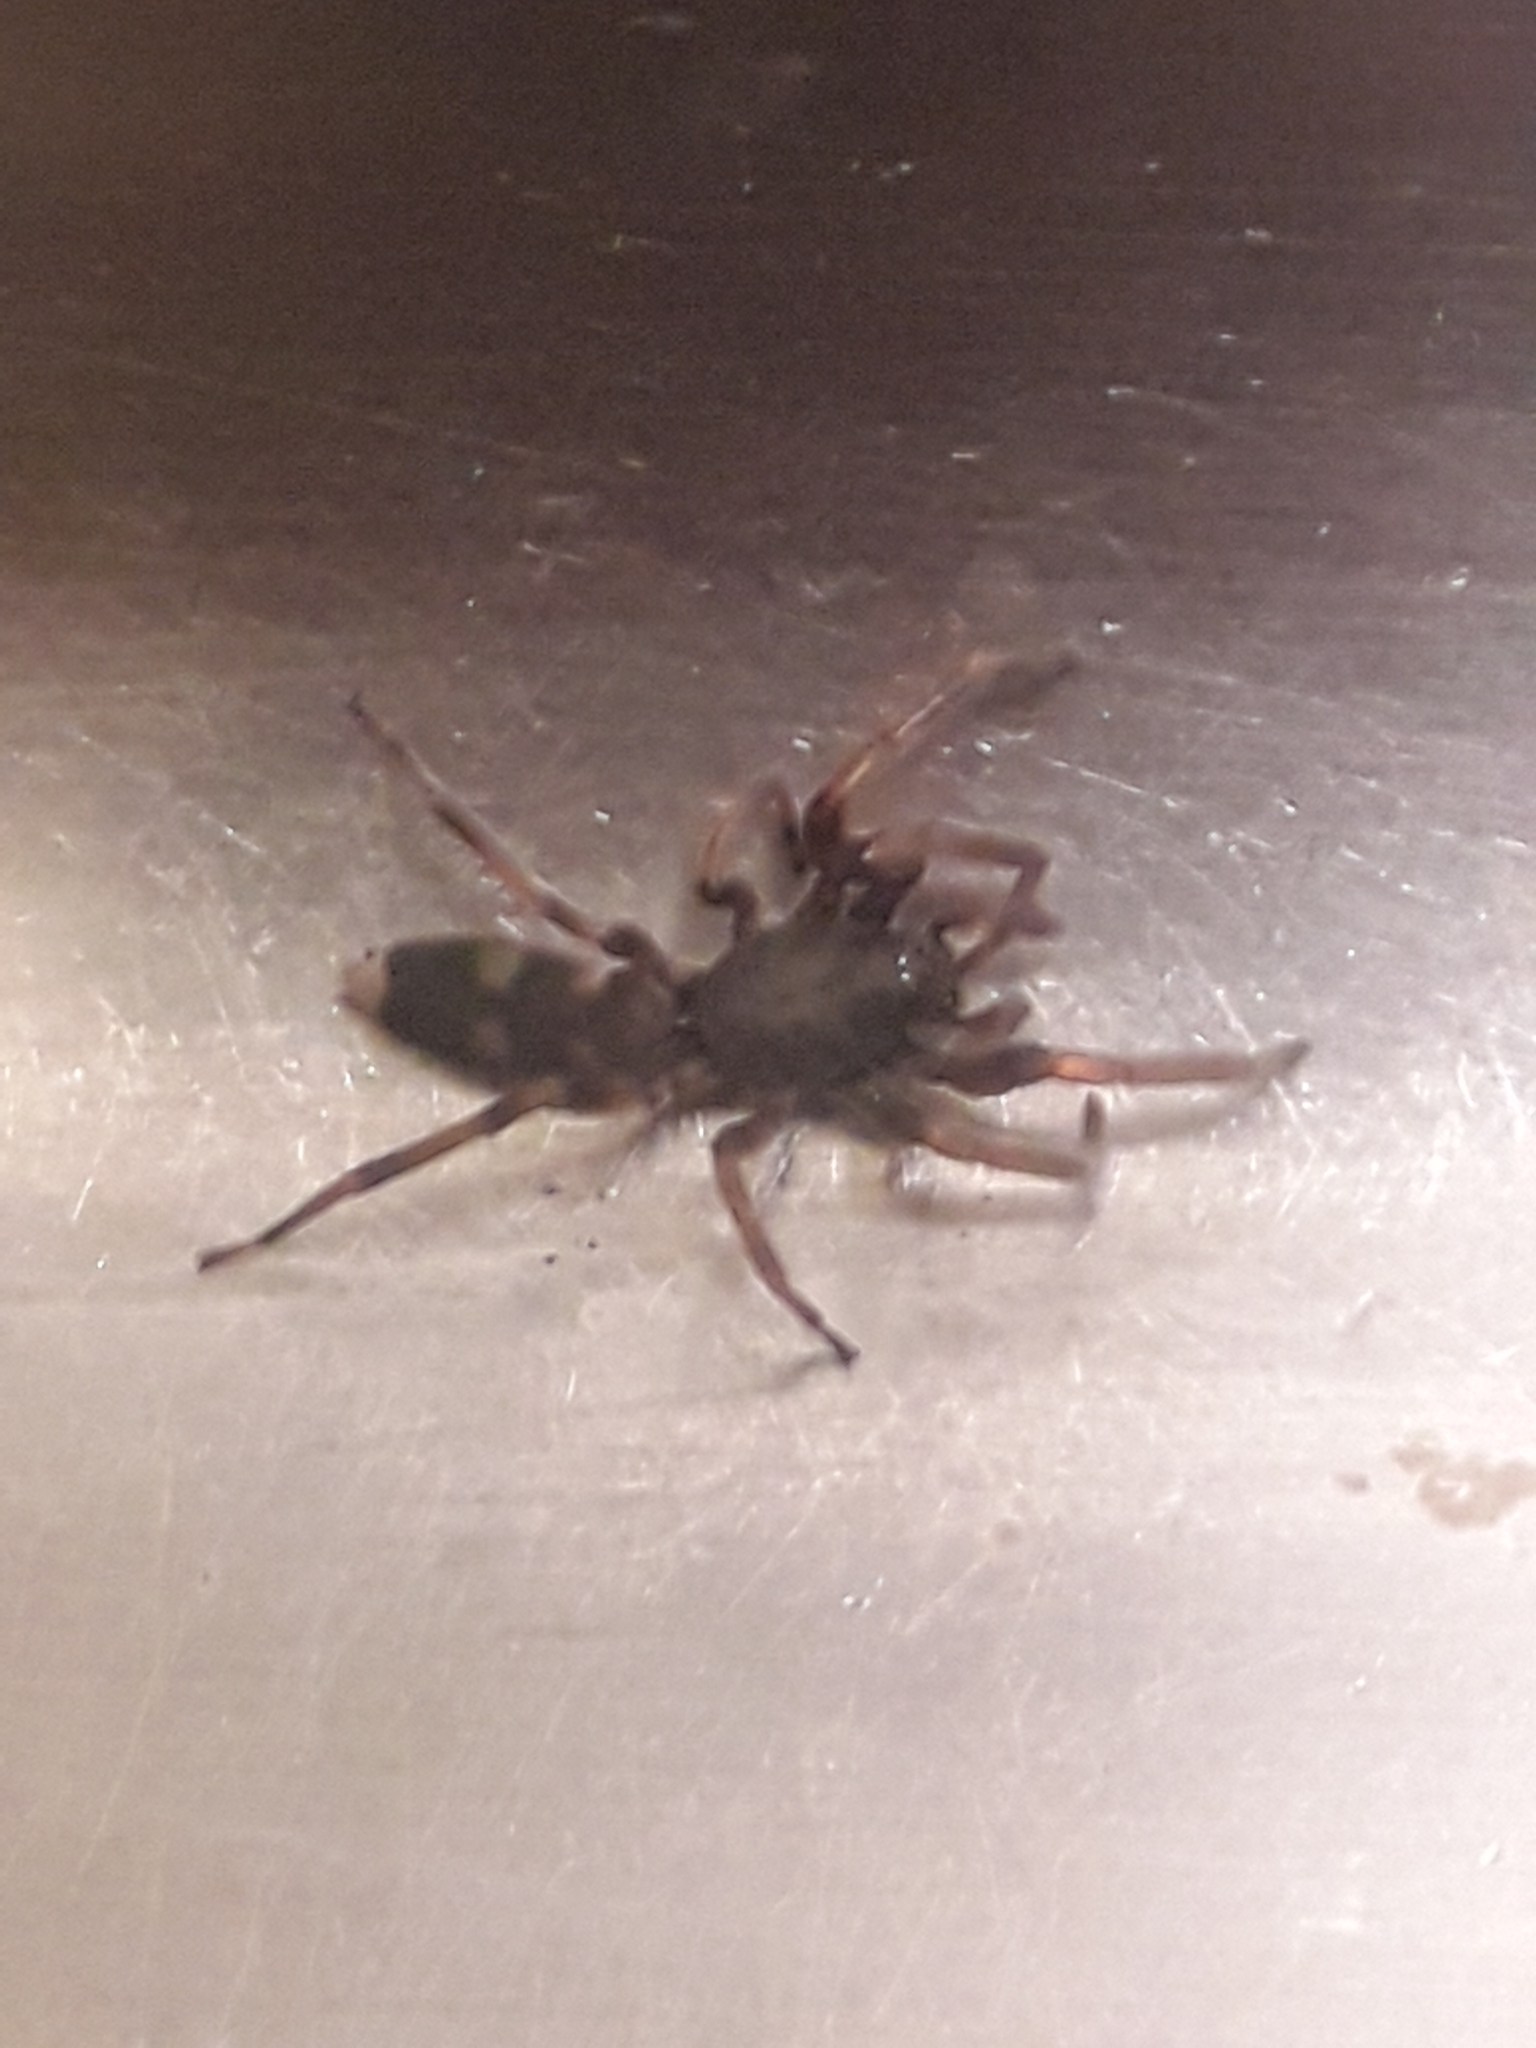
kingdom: Animalia
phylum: Arthropoda
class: Arachnida
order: Araneae
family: Lamponidae
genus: Lampona
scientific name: Lampona murina
